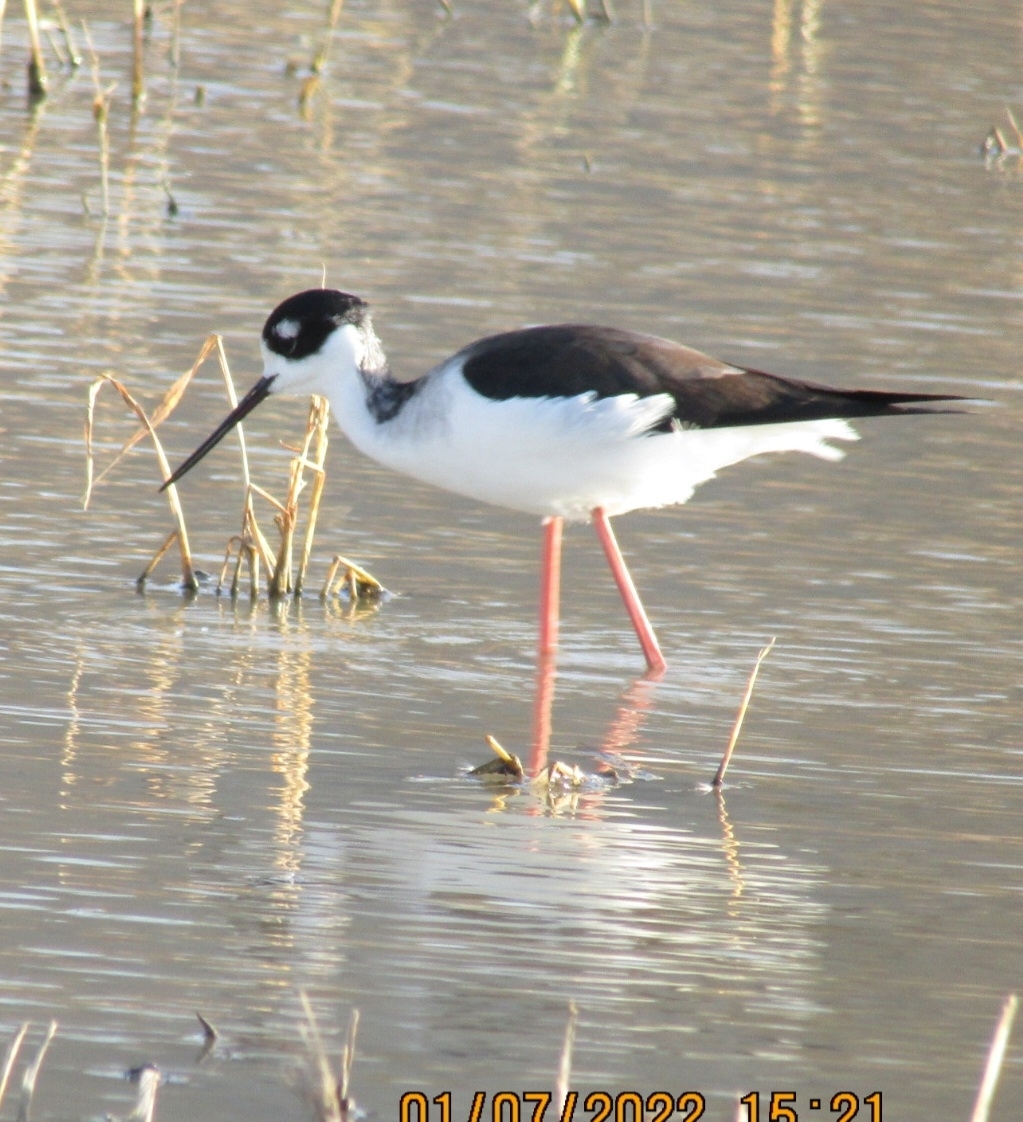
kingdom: Animalia
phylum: Chordata
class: Aves
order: Charadriiformes
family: Recurvirostridae
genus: Himantopus
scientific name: Himantopus mexicanus
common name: Black-necked stilt
